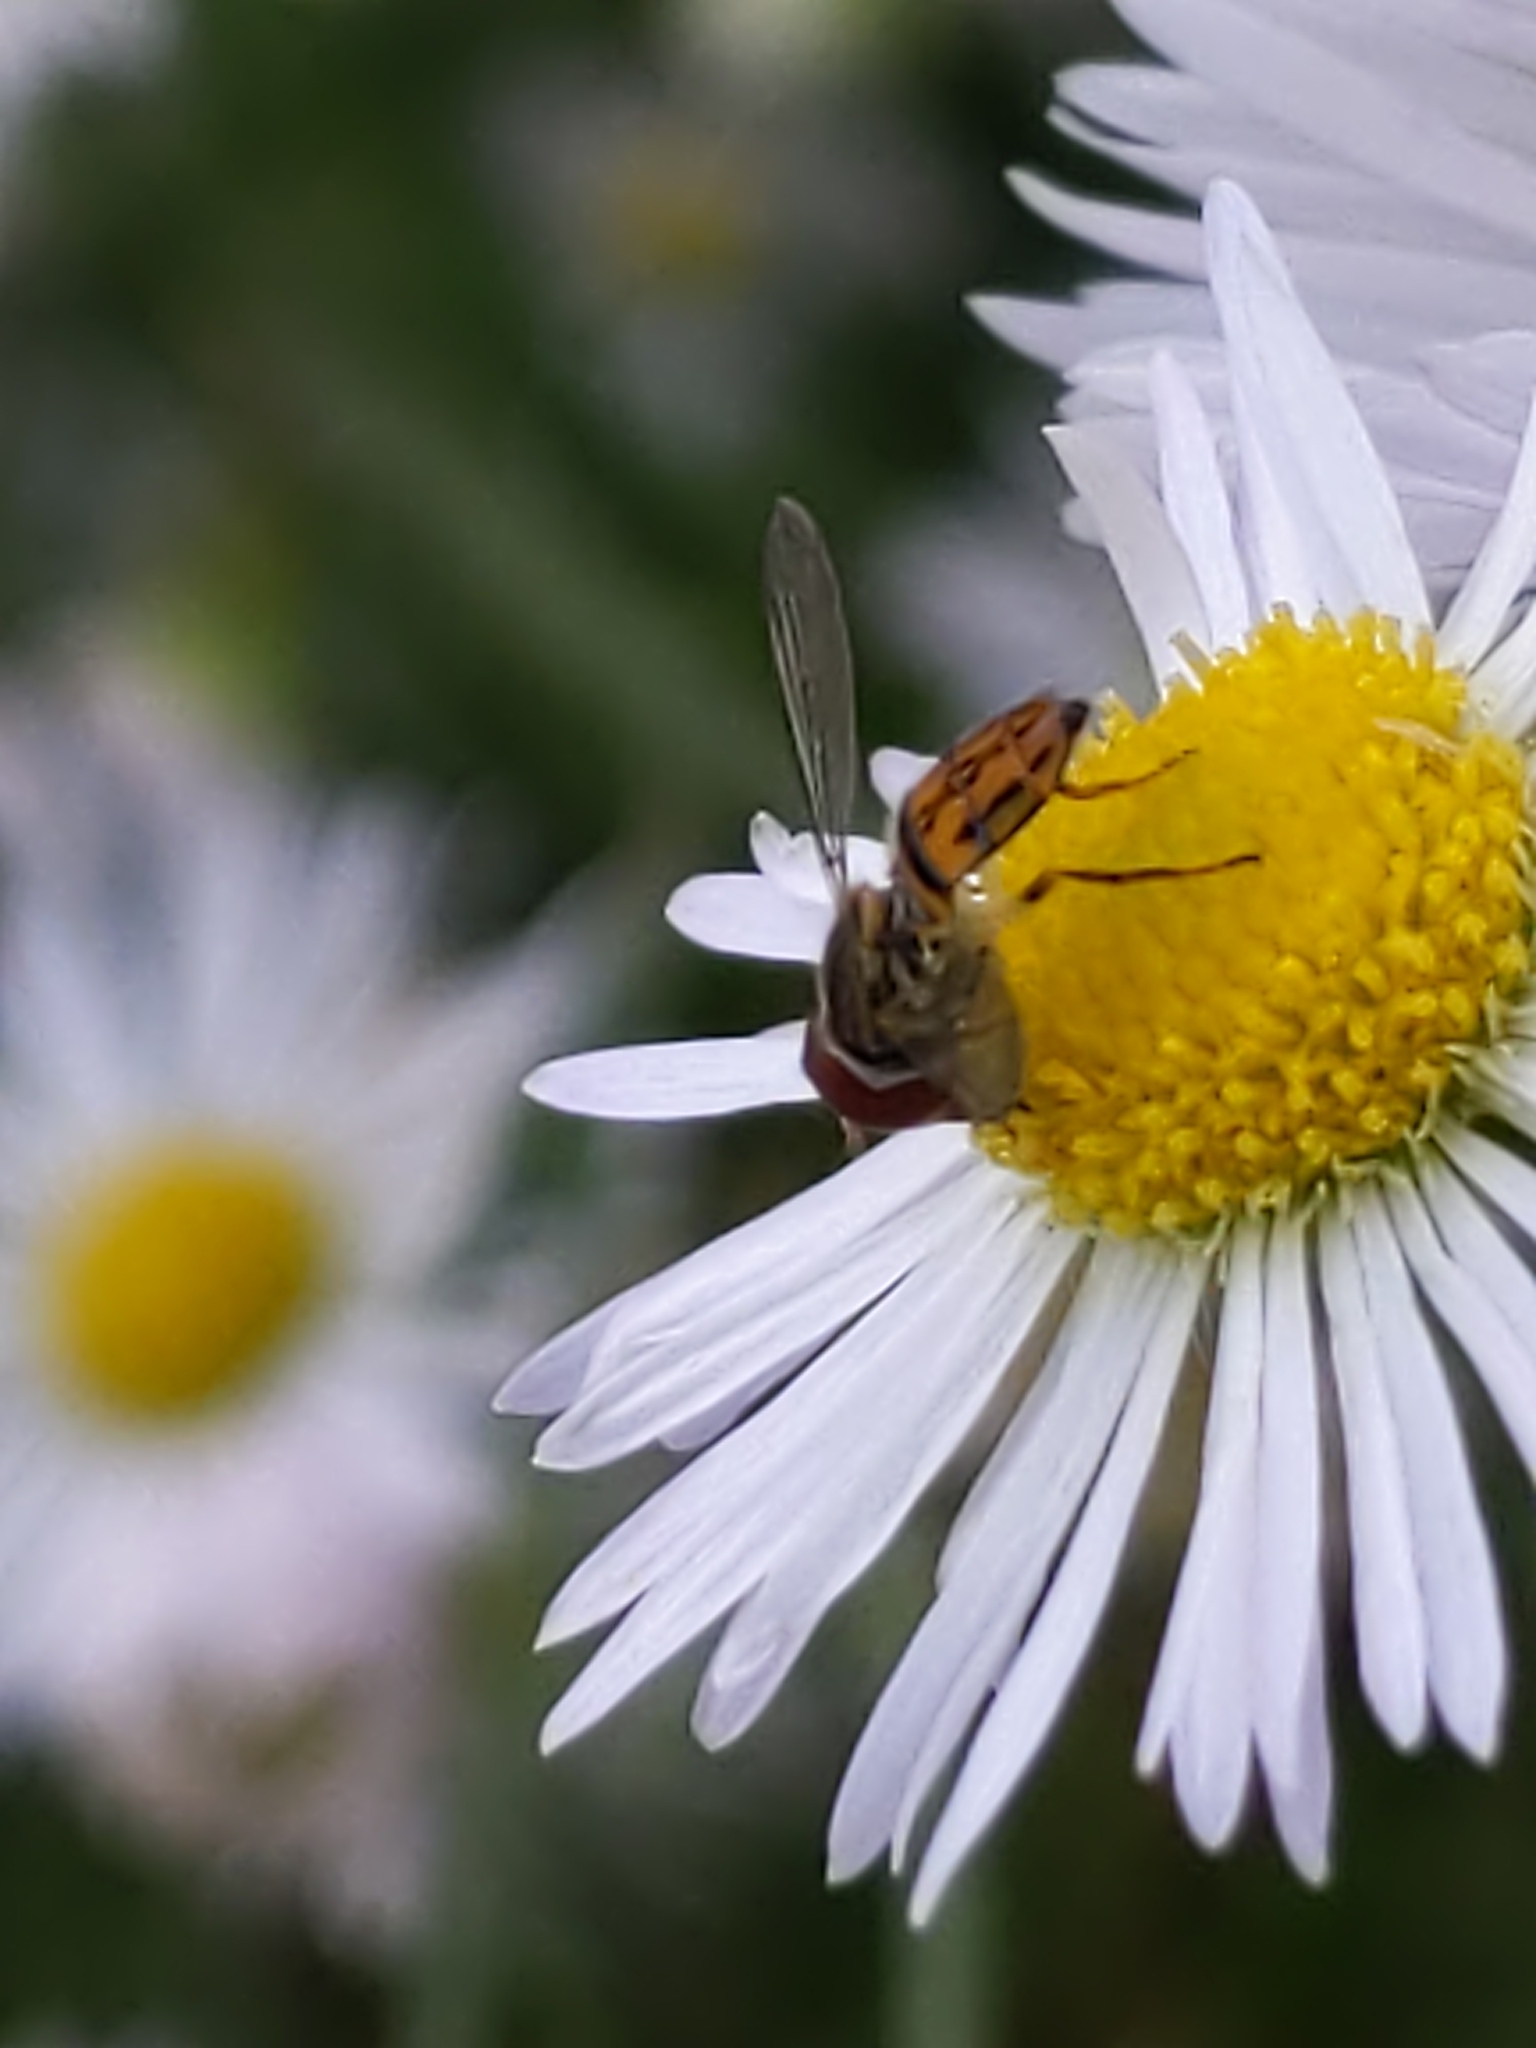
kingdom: Animalia
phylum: Arthropoda
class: Insecta
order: Diptera
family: Syrphidae
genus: Toxomerus
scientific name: Toxomerus boscii
